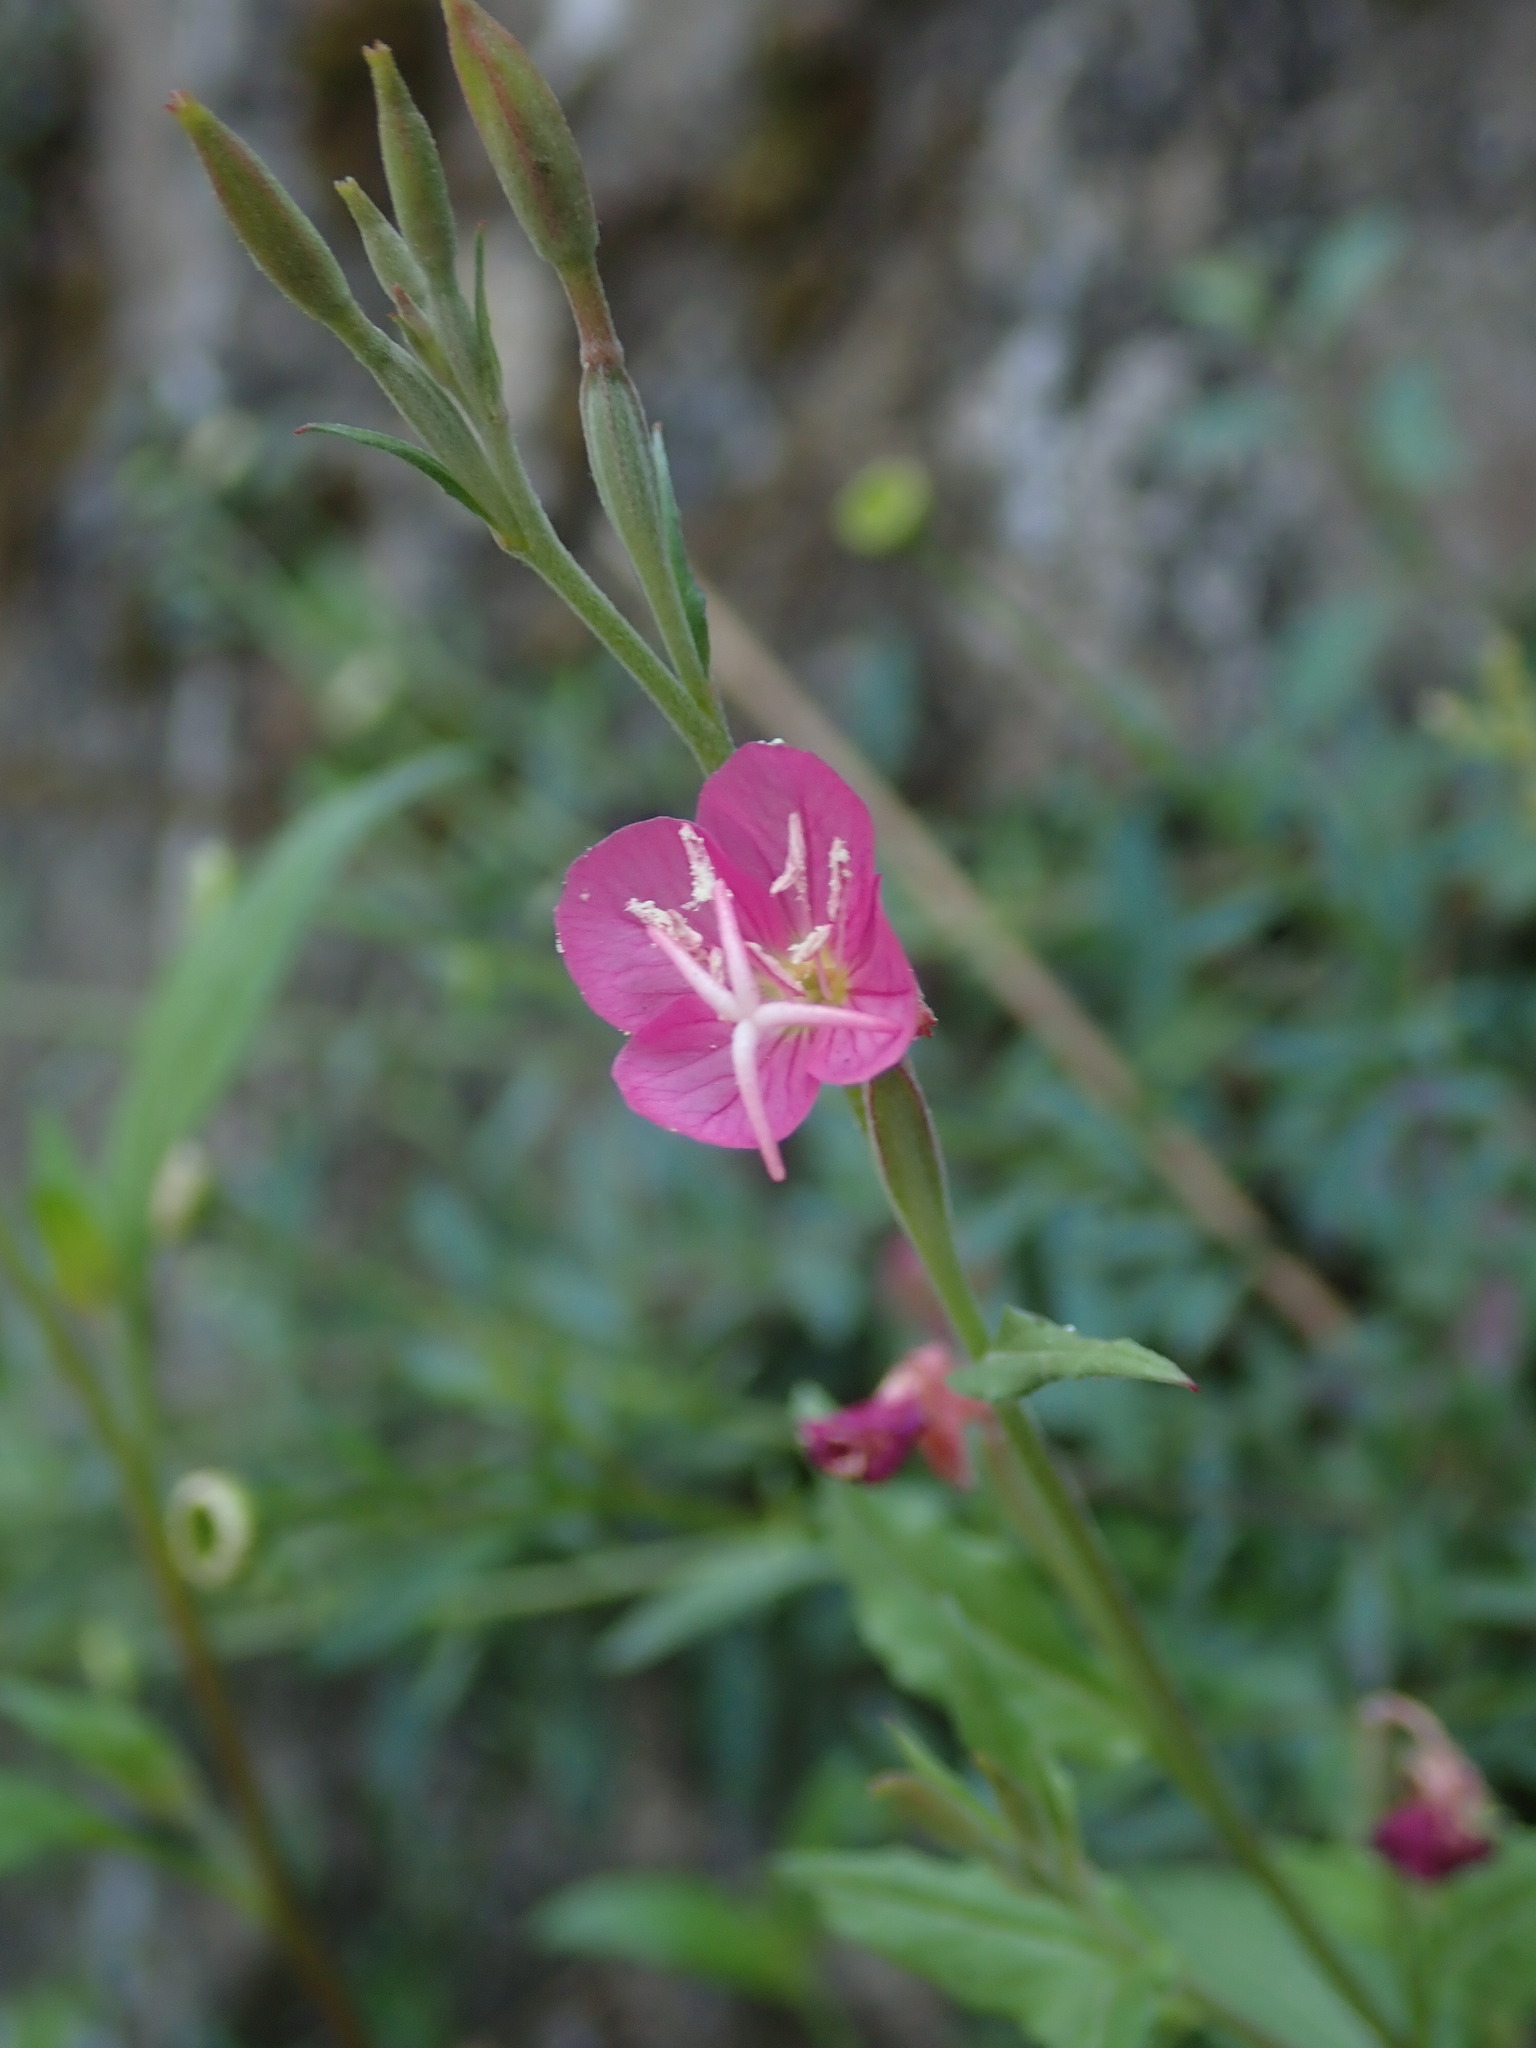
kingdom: Plantae
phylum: Tracheophyta
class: Magnoliopsida
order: Myrtales
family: Onagraceae
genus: Oenothera
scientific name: Oenothera rosea
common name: Rosy evening-primrose
